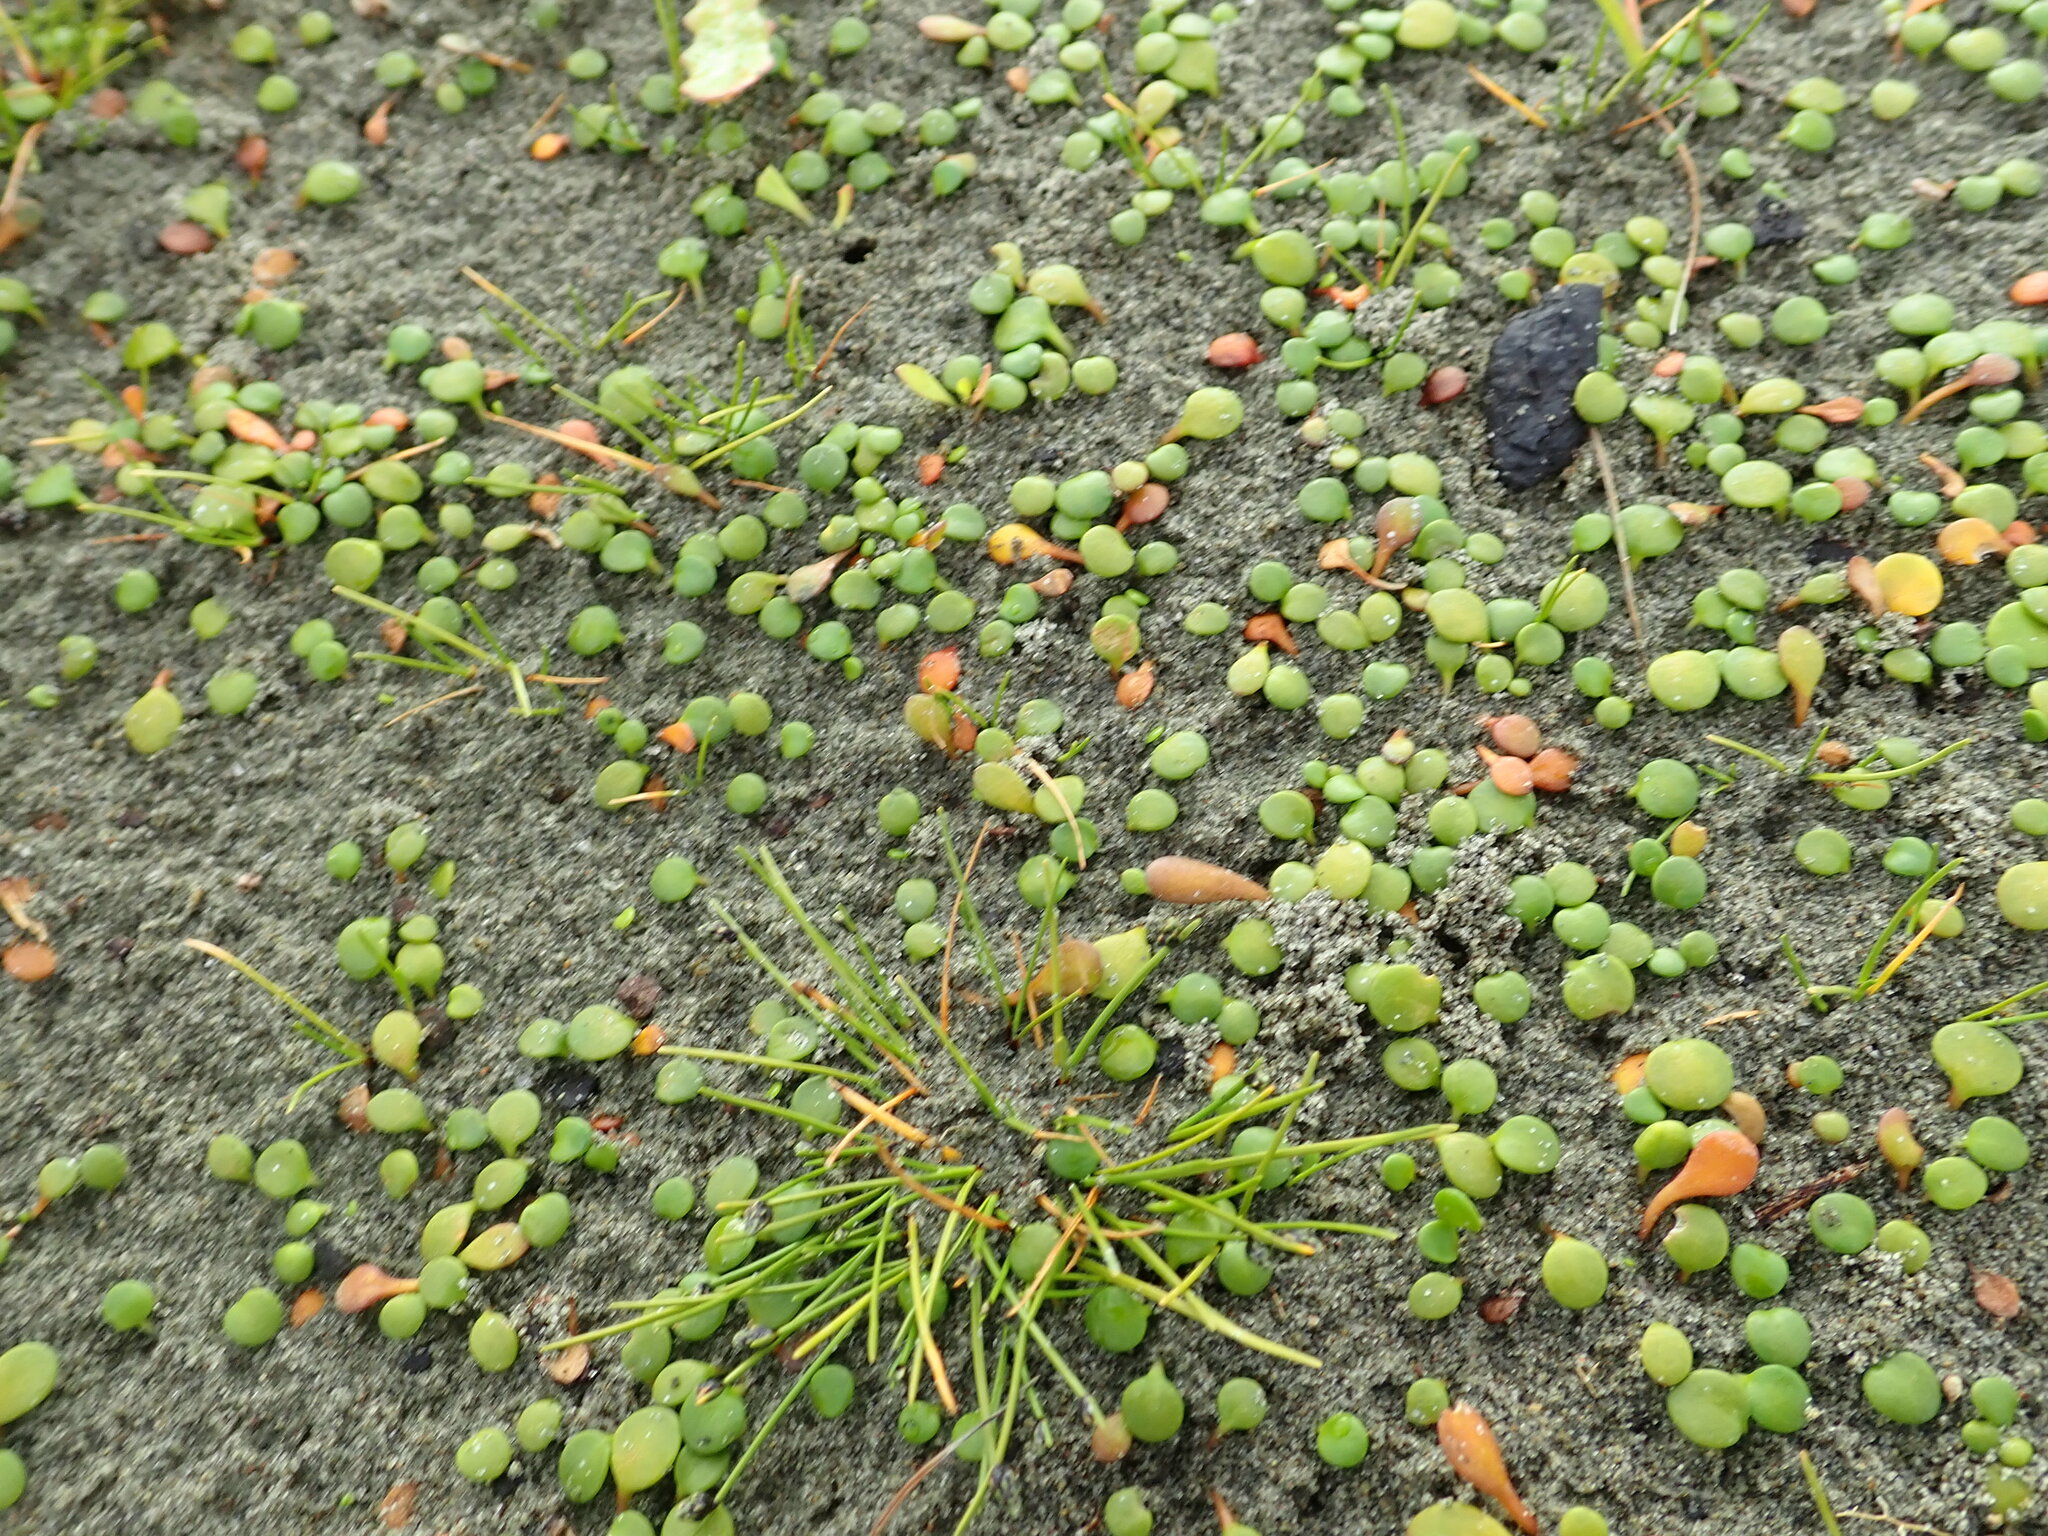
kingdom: Plantae
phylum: Tracheophyta
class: Magnoliopsida
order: Asterales
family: Goodeniaceae
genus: Goodenia
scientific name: Goodenia heenanii
